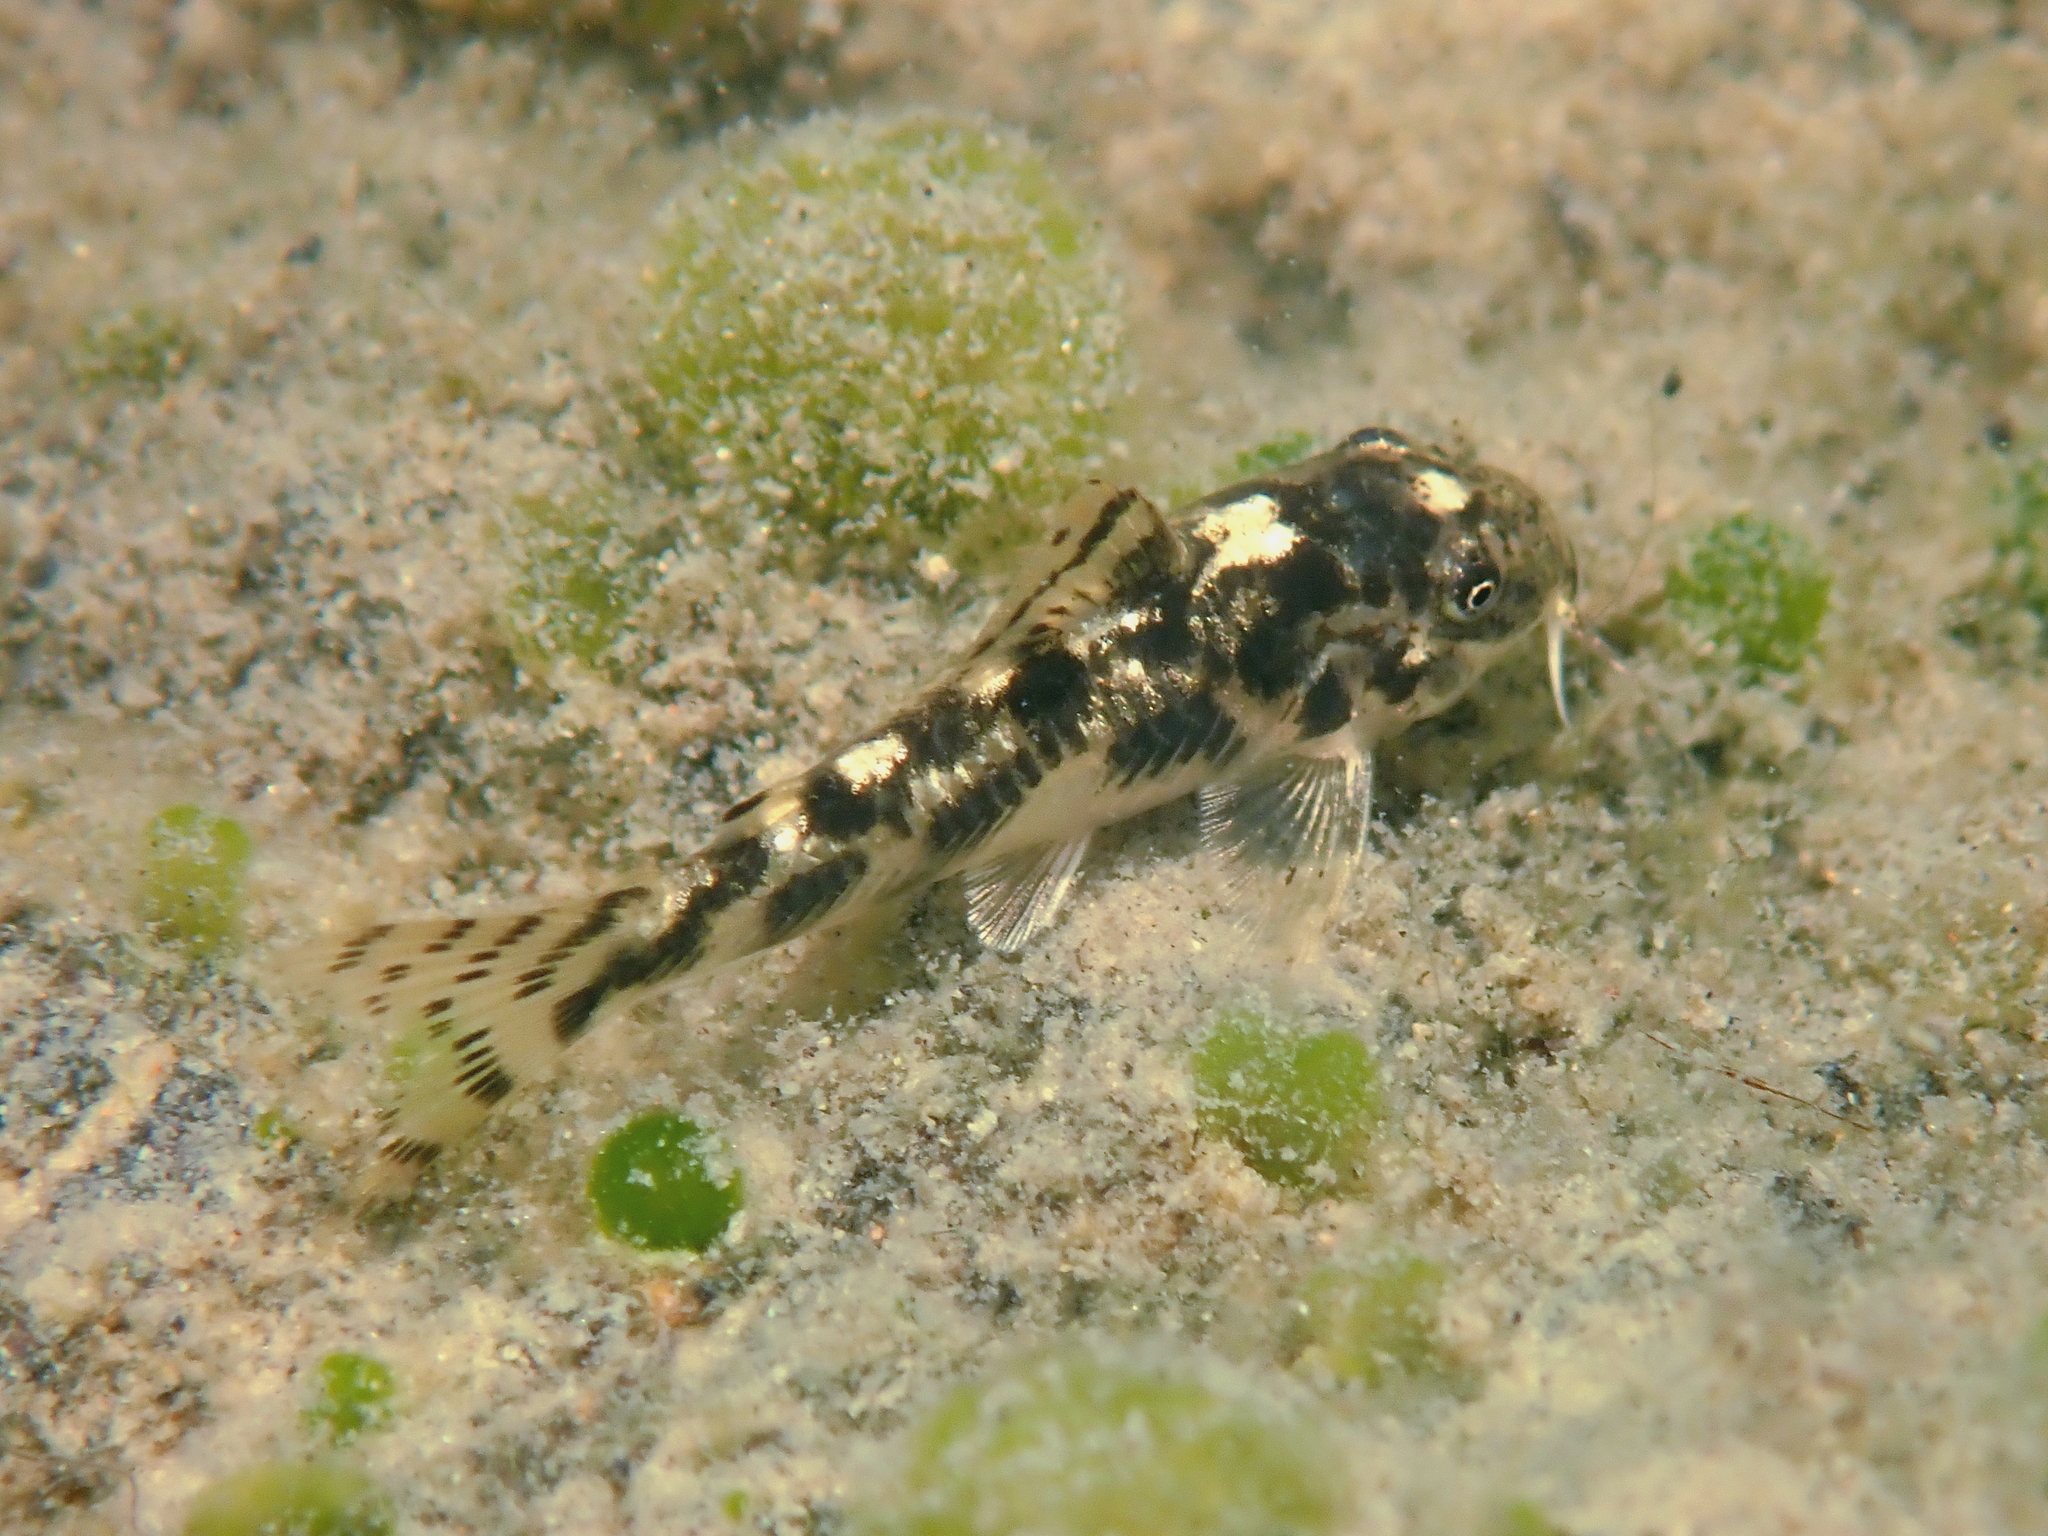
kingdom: Animalia
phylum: Chordata
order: Siluriformes
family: Callichthyidae
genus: Aspidoras
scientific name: Aspidoras albater
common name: False macropterus
